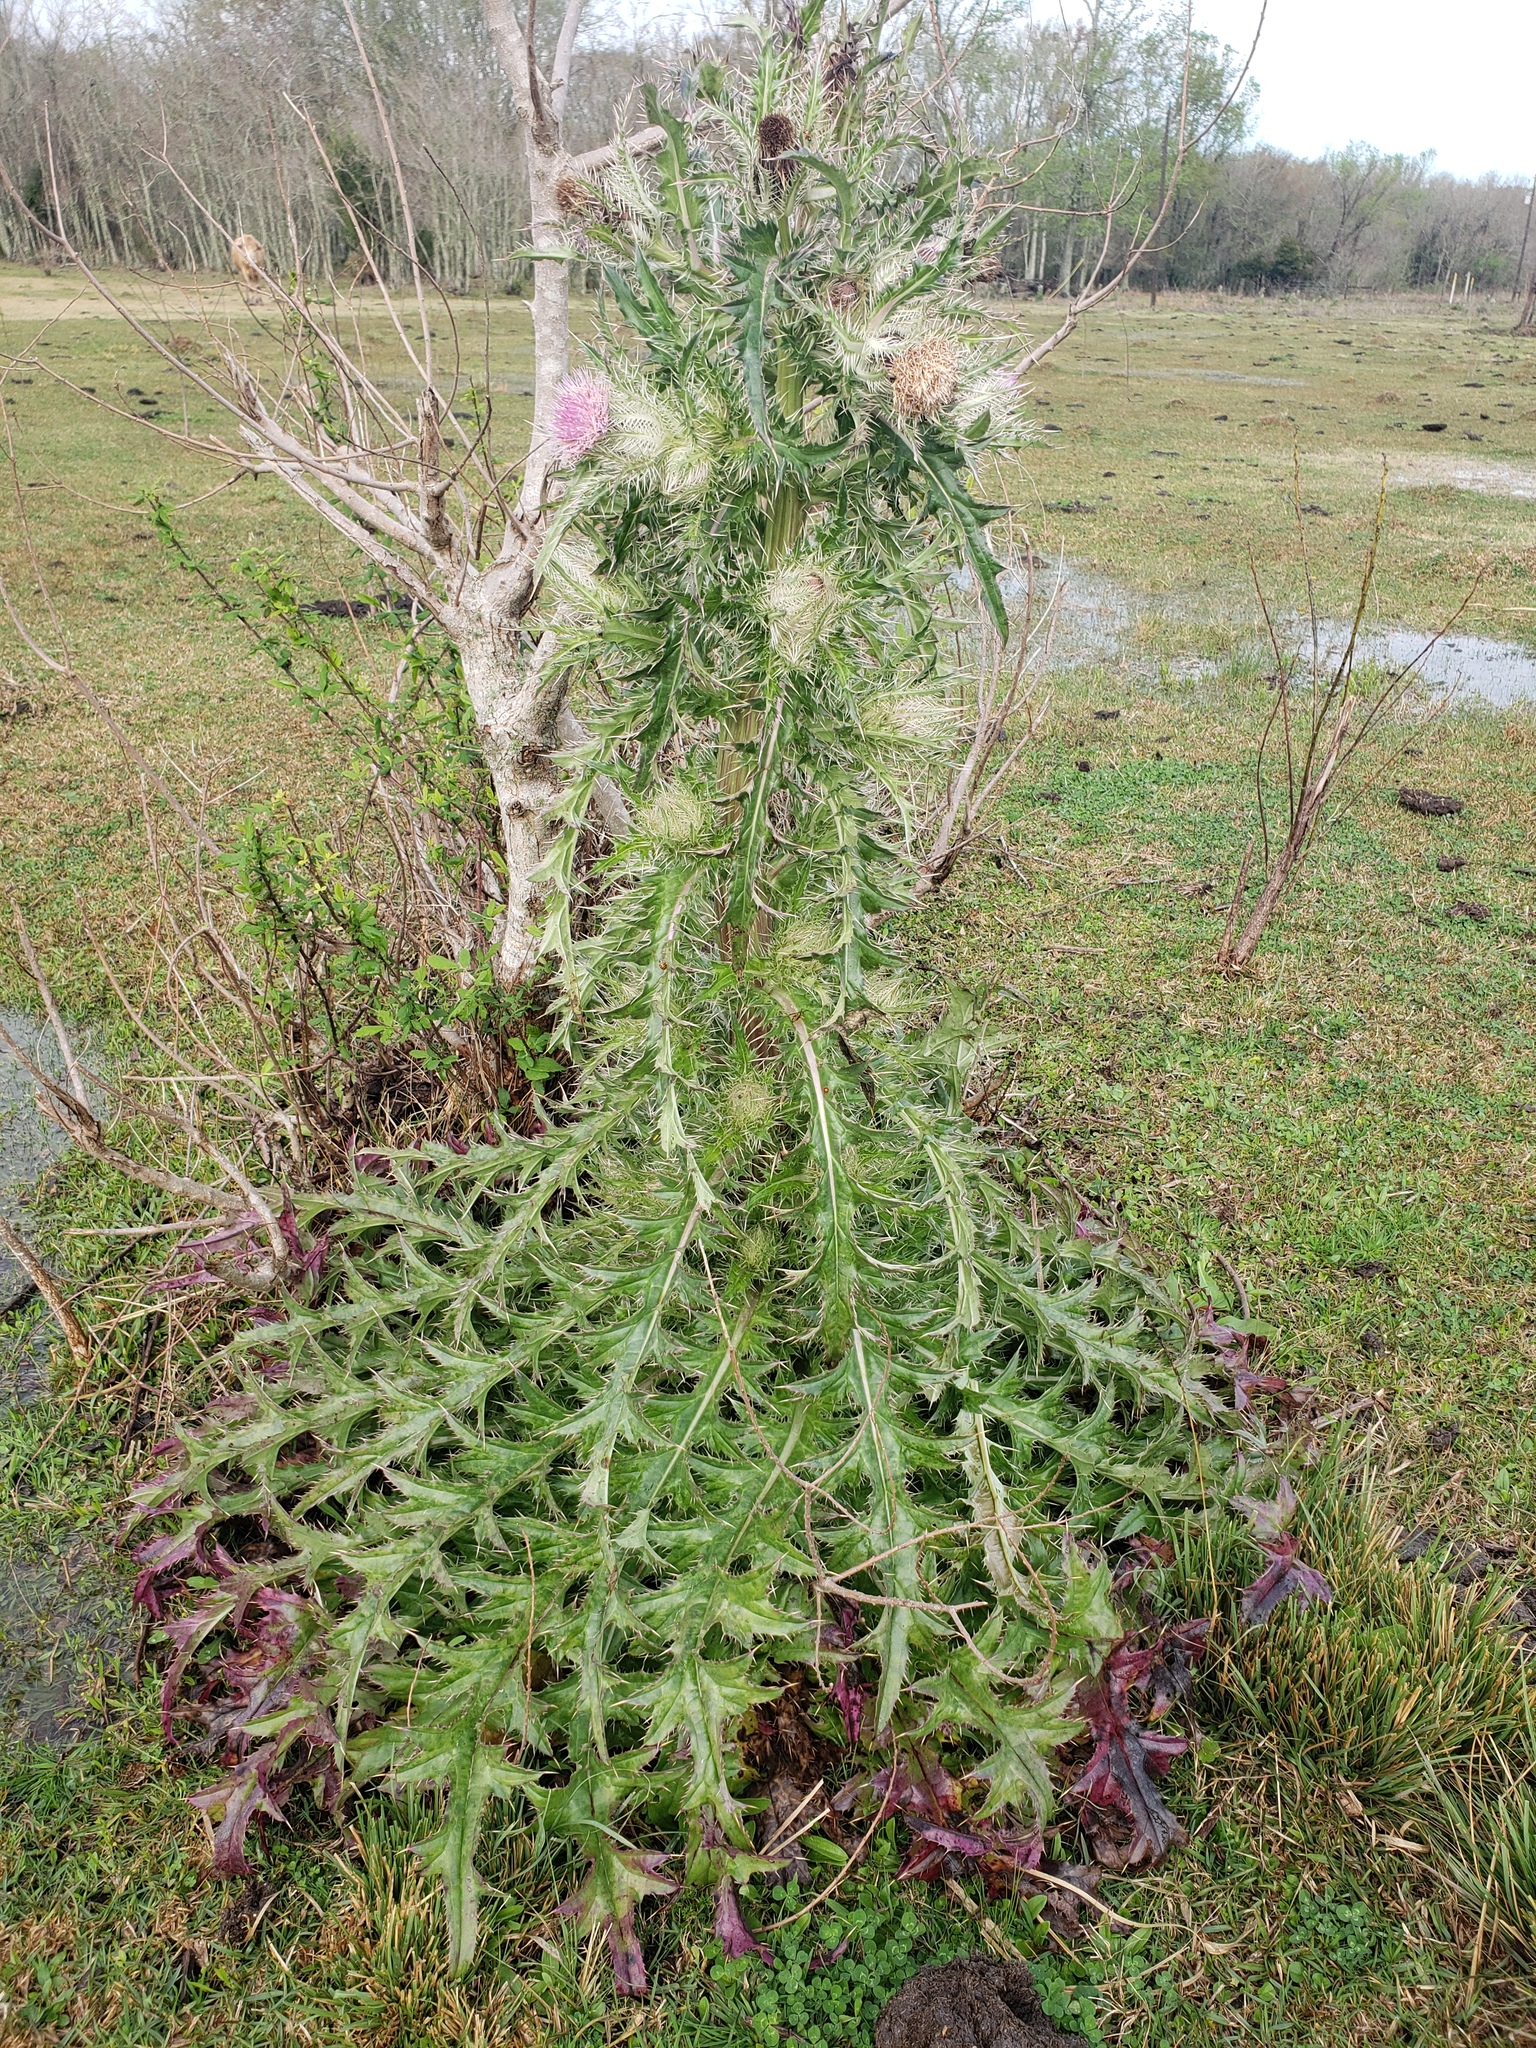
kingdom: Plantae
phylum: Tracheophyta
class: Magnoliopsida
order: Asterales
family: Asteraceae
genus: Cirsium
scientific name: Cirsium horridulum
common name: Bristly thistle
